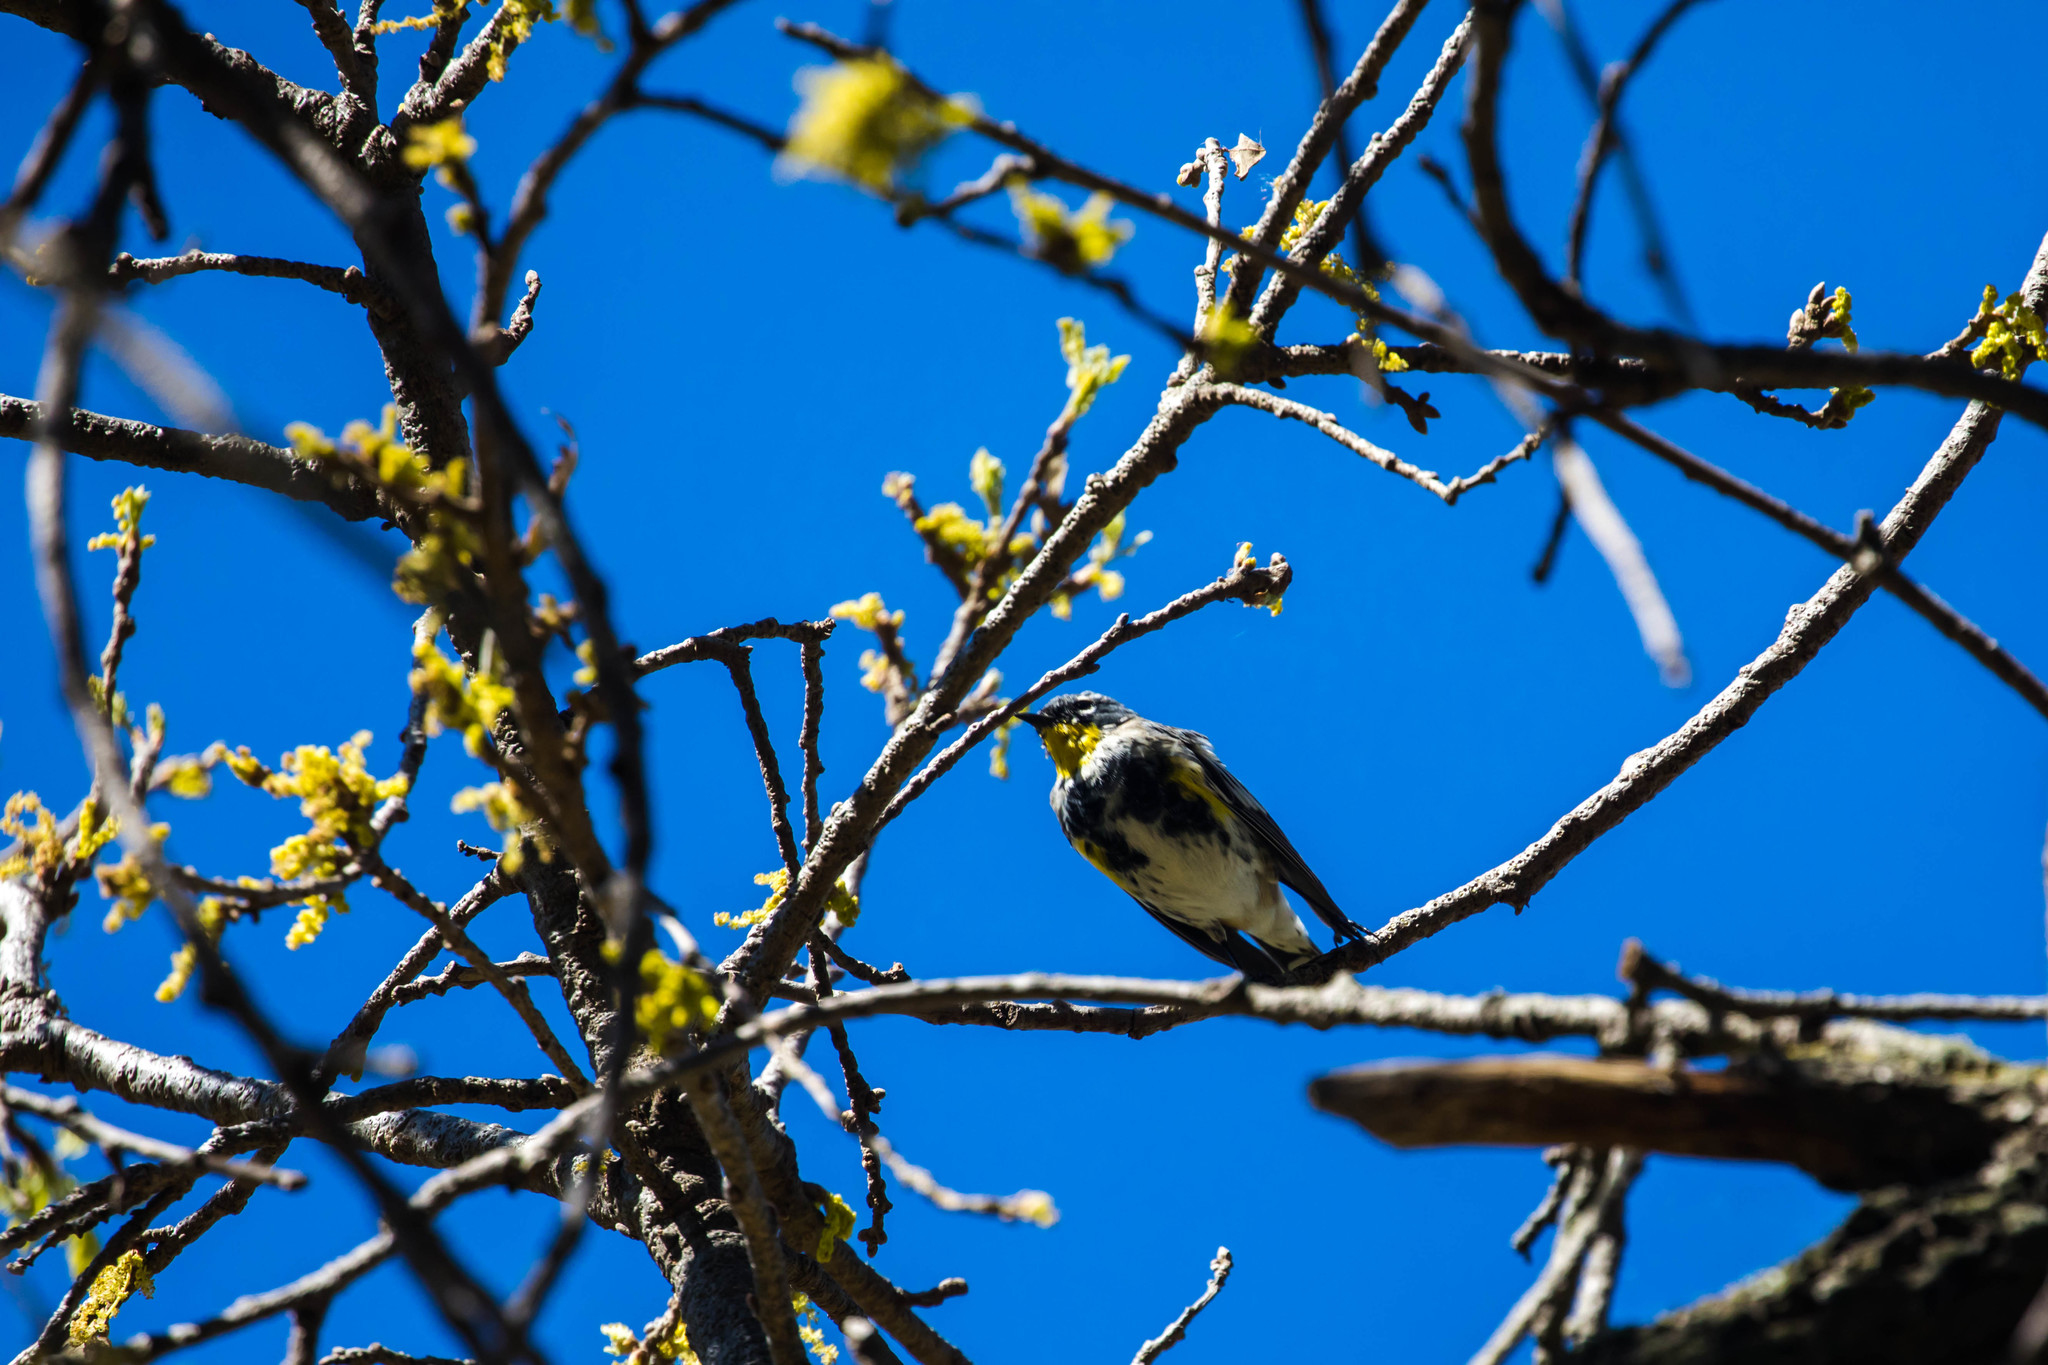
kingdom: Animalia
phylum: Chordata
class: Aves
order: Passeriformes
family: Parulidae
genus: Setophaga
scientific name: Setophaga auduboni
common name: Audubon's warbler
